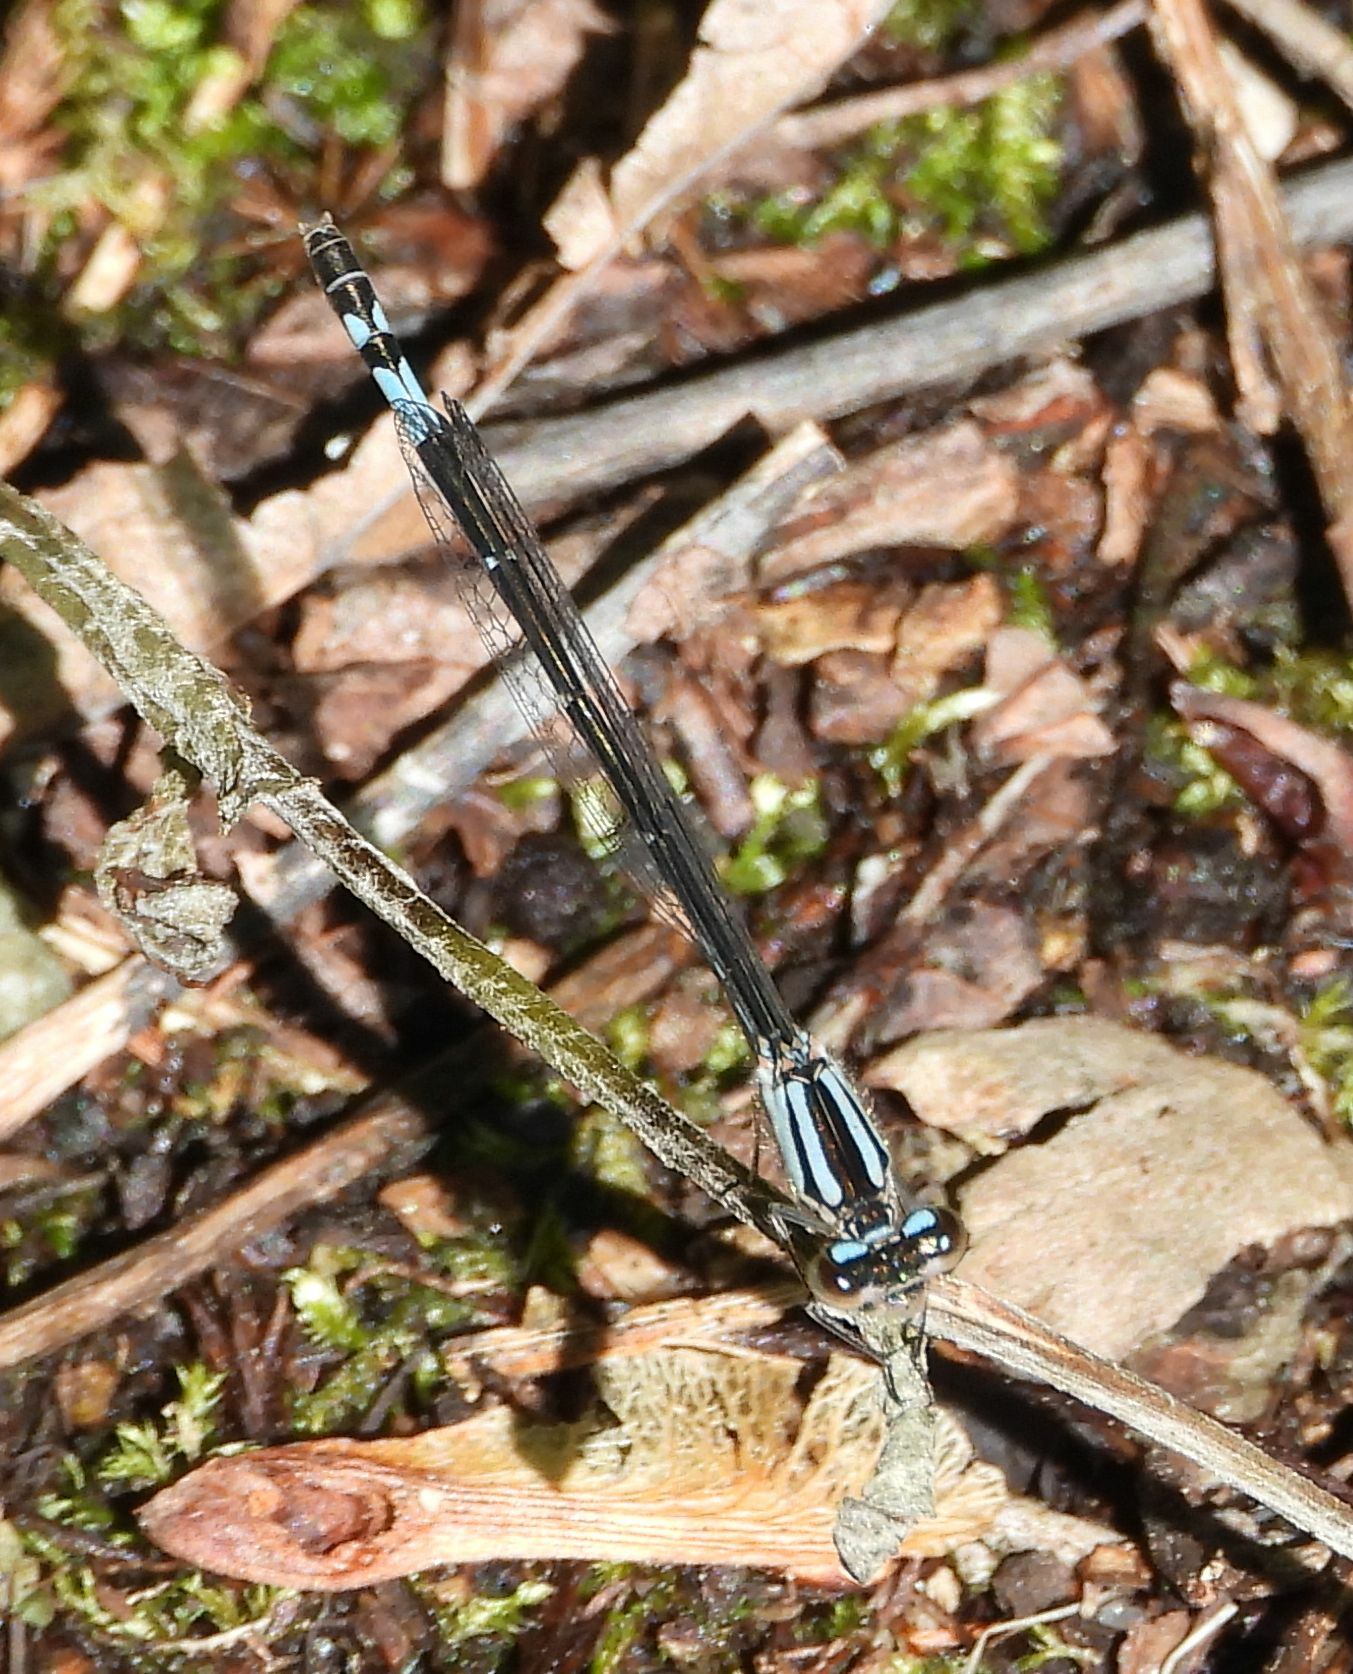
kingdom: Animalia
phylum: Arthropoda
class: Insecta
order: Odonata
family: Coenagrionidae
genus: Enallagma
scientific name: Enallagma aspersum
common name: Azure bluet
